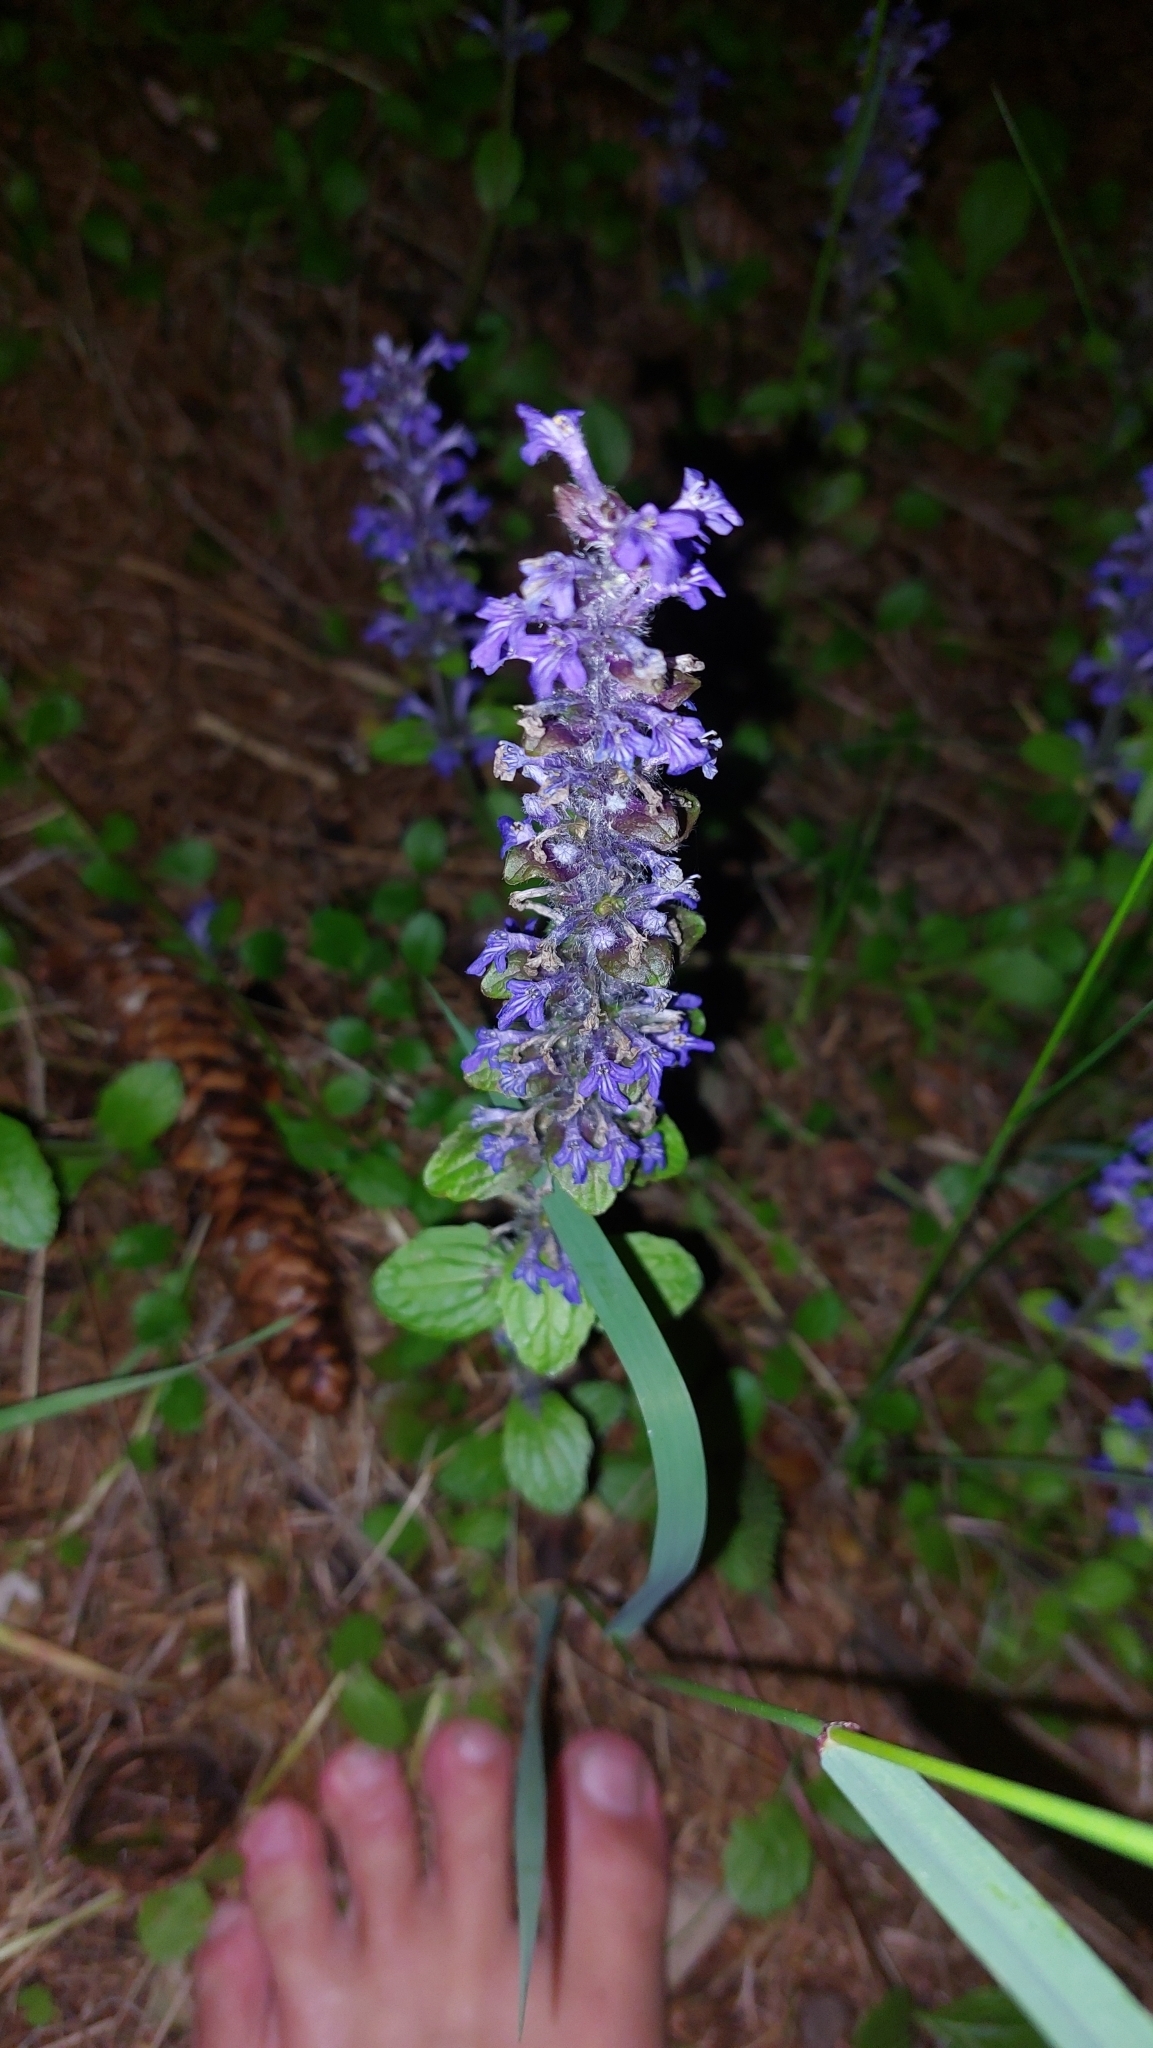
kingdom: Plantae
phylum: Tracheophyta
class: Magnoliopsida
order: Lamiales
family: Lamiaceae
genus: Ajuga
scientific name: Ajuga reptans
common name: Bugle
